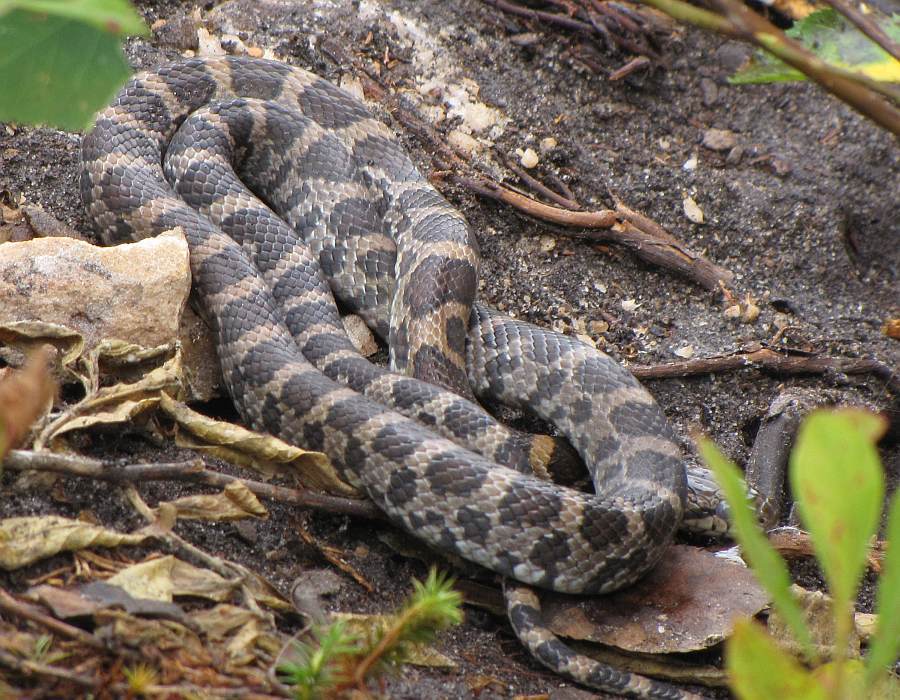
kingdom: Animalia
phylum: Chordata
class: Squamata
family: Colubridae
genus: Lampropeltis
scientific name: Lampropeltis triangulum
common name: Eastern milksnake
